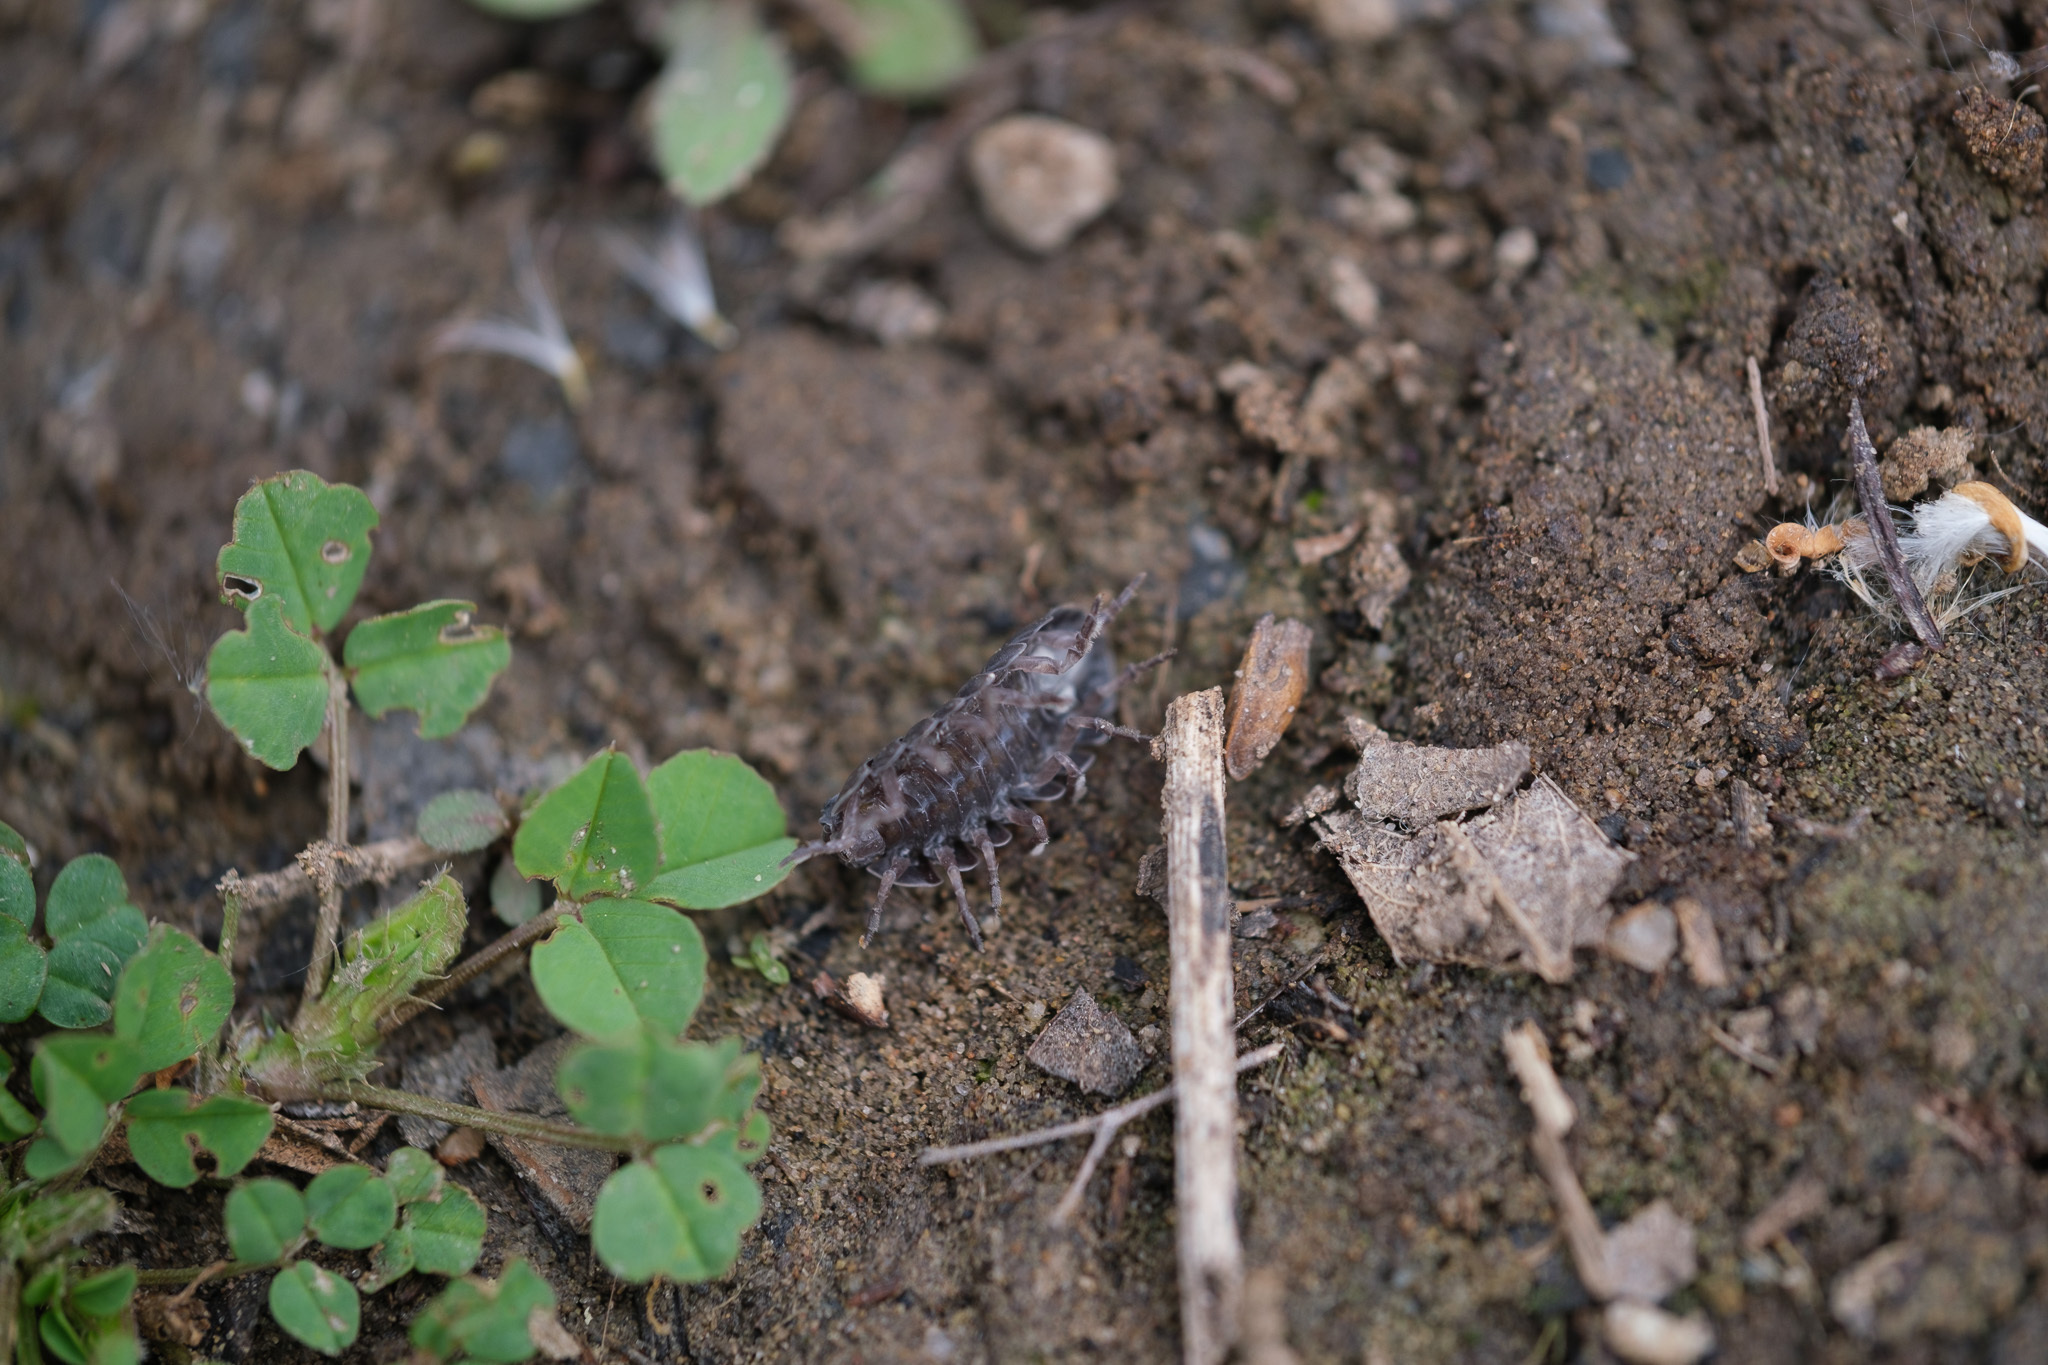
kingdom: Animalia
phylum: Arthropoda
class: Malacostraca
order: Isopoda
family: Armadillidiidae
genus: Armadillidium
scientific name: Armadillidium vulgare
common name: Common pill woodlouse
